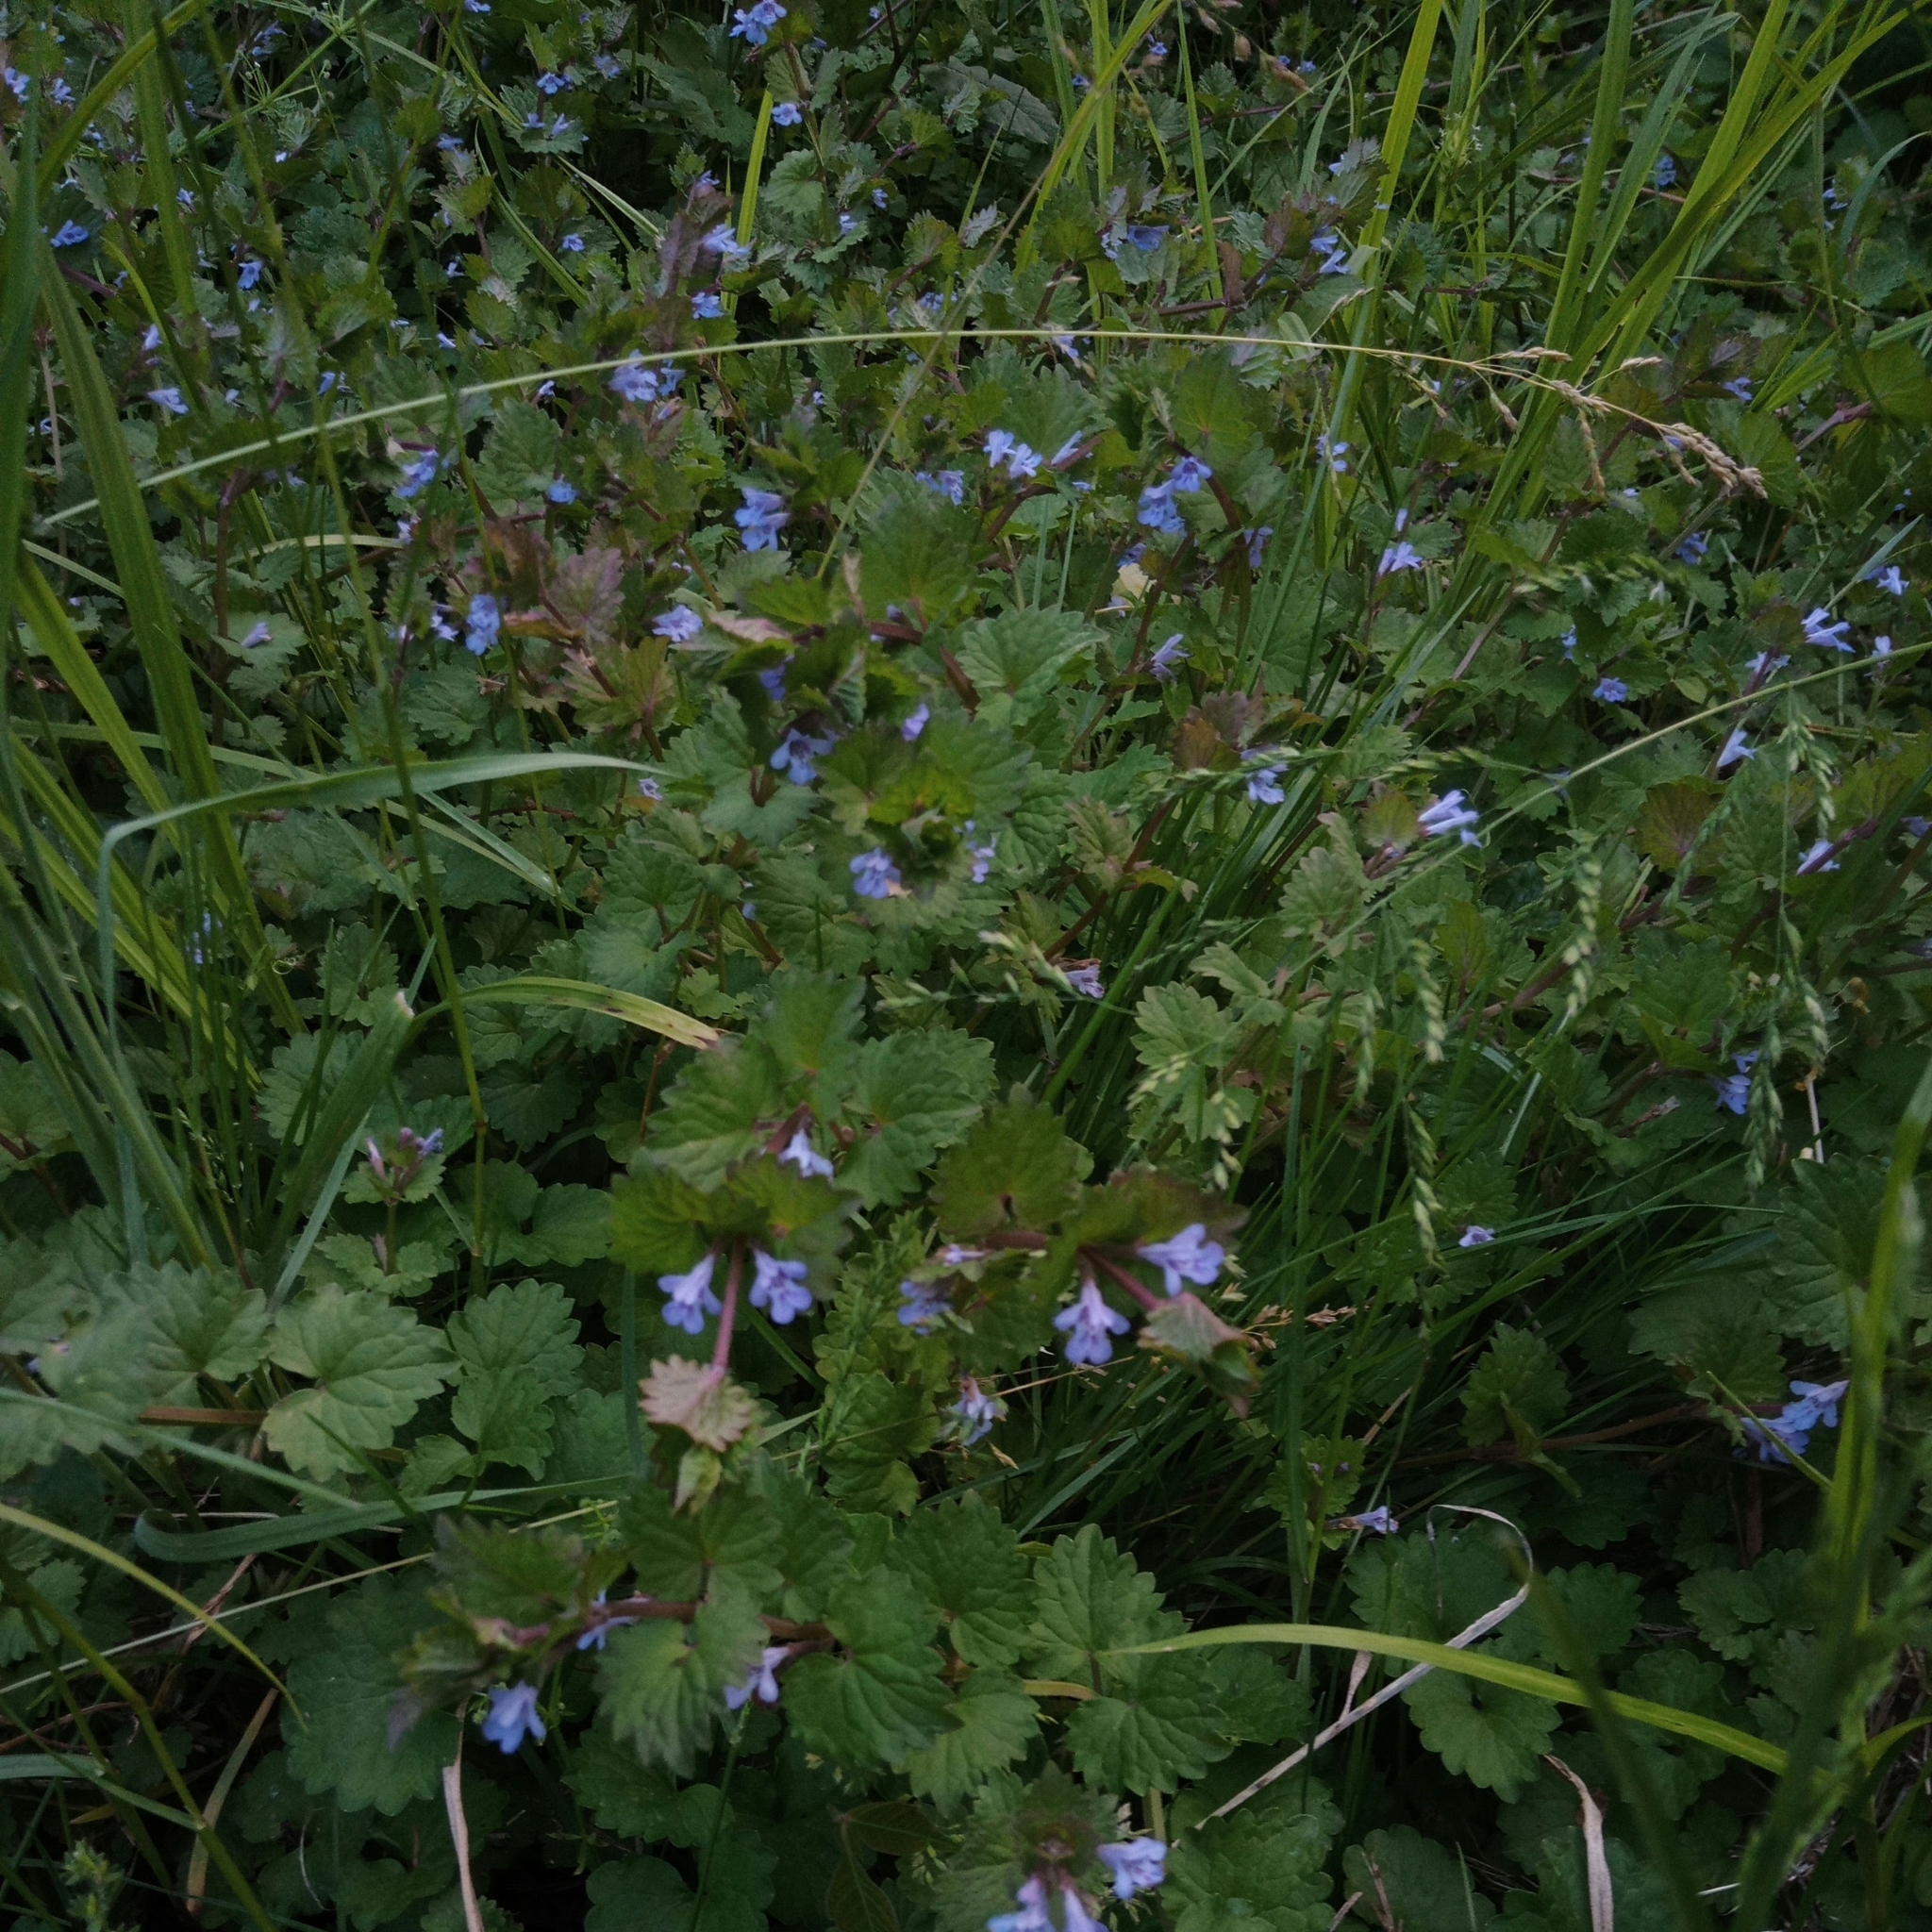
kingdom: Plantae
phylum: Tracheophyta
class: Magnoliopsida
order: Lamiales
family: Lamiaceae
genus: Glechoma
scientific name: Glechoma hederacea
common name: Ground ivy
